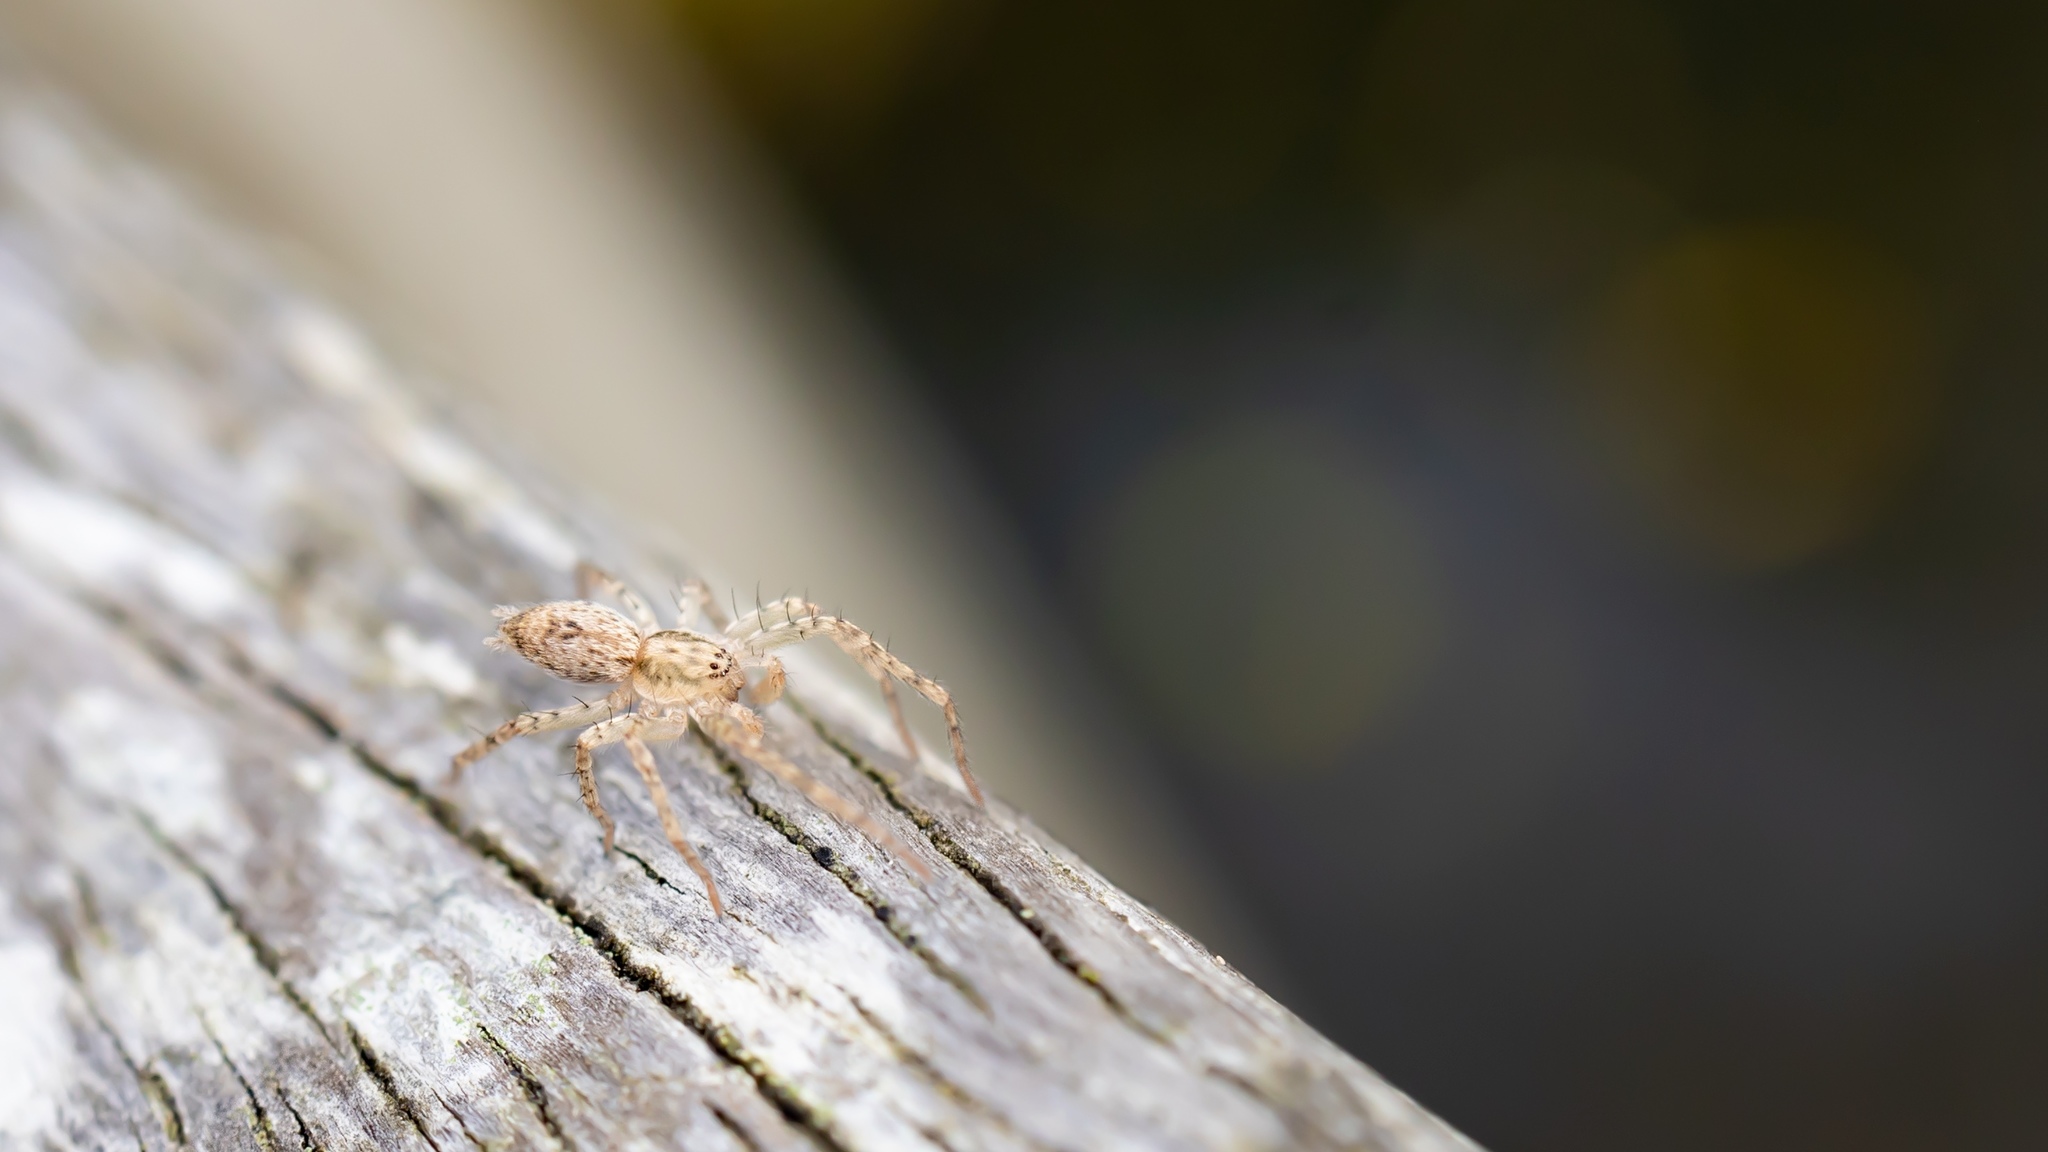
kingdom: Animalia
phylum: Arthropoda
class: Arachnida
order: Araneae
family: Anyphaenidae
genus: Anyphaena
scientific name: Anyphaena accentuata
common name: Buzzing spider
